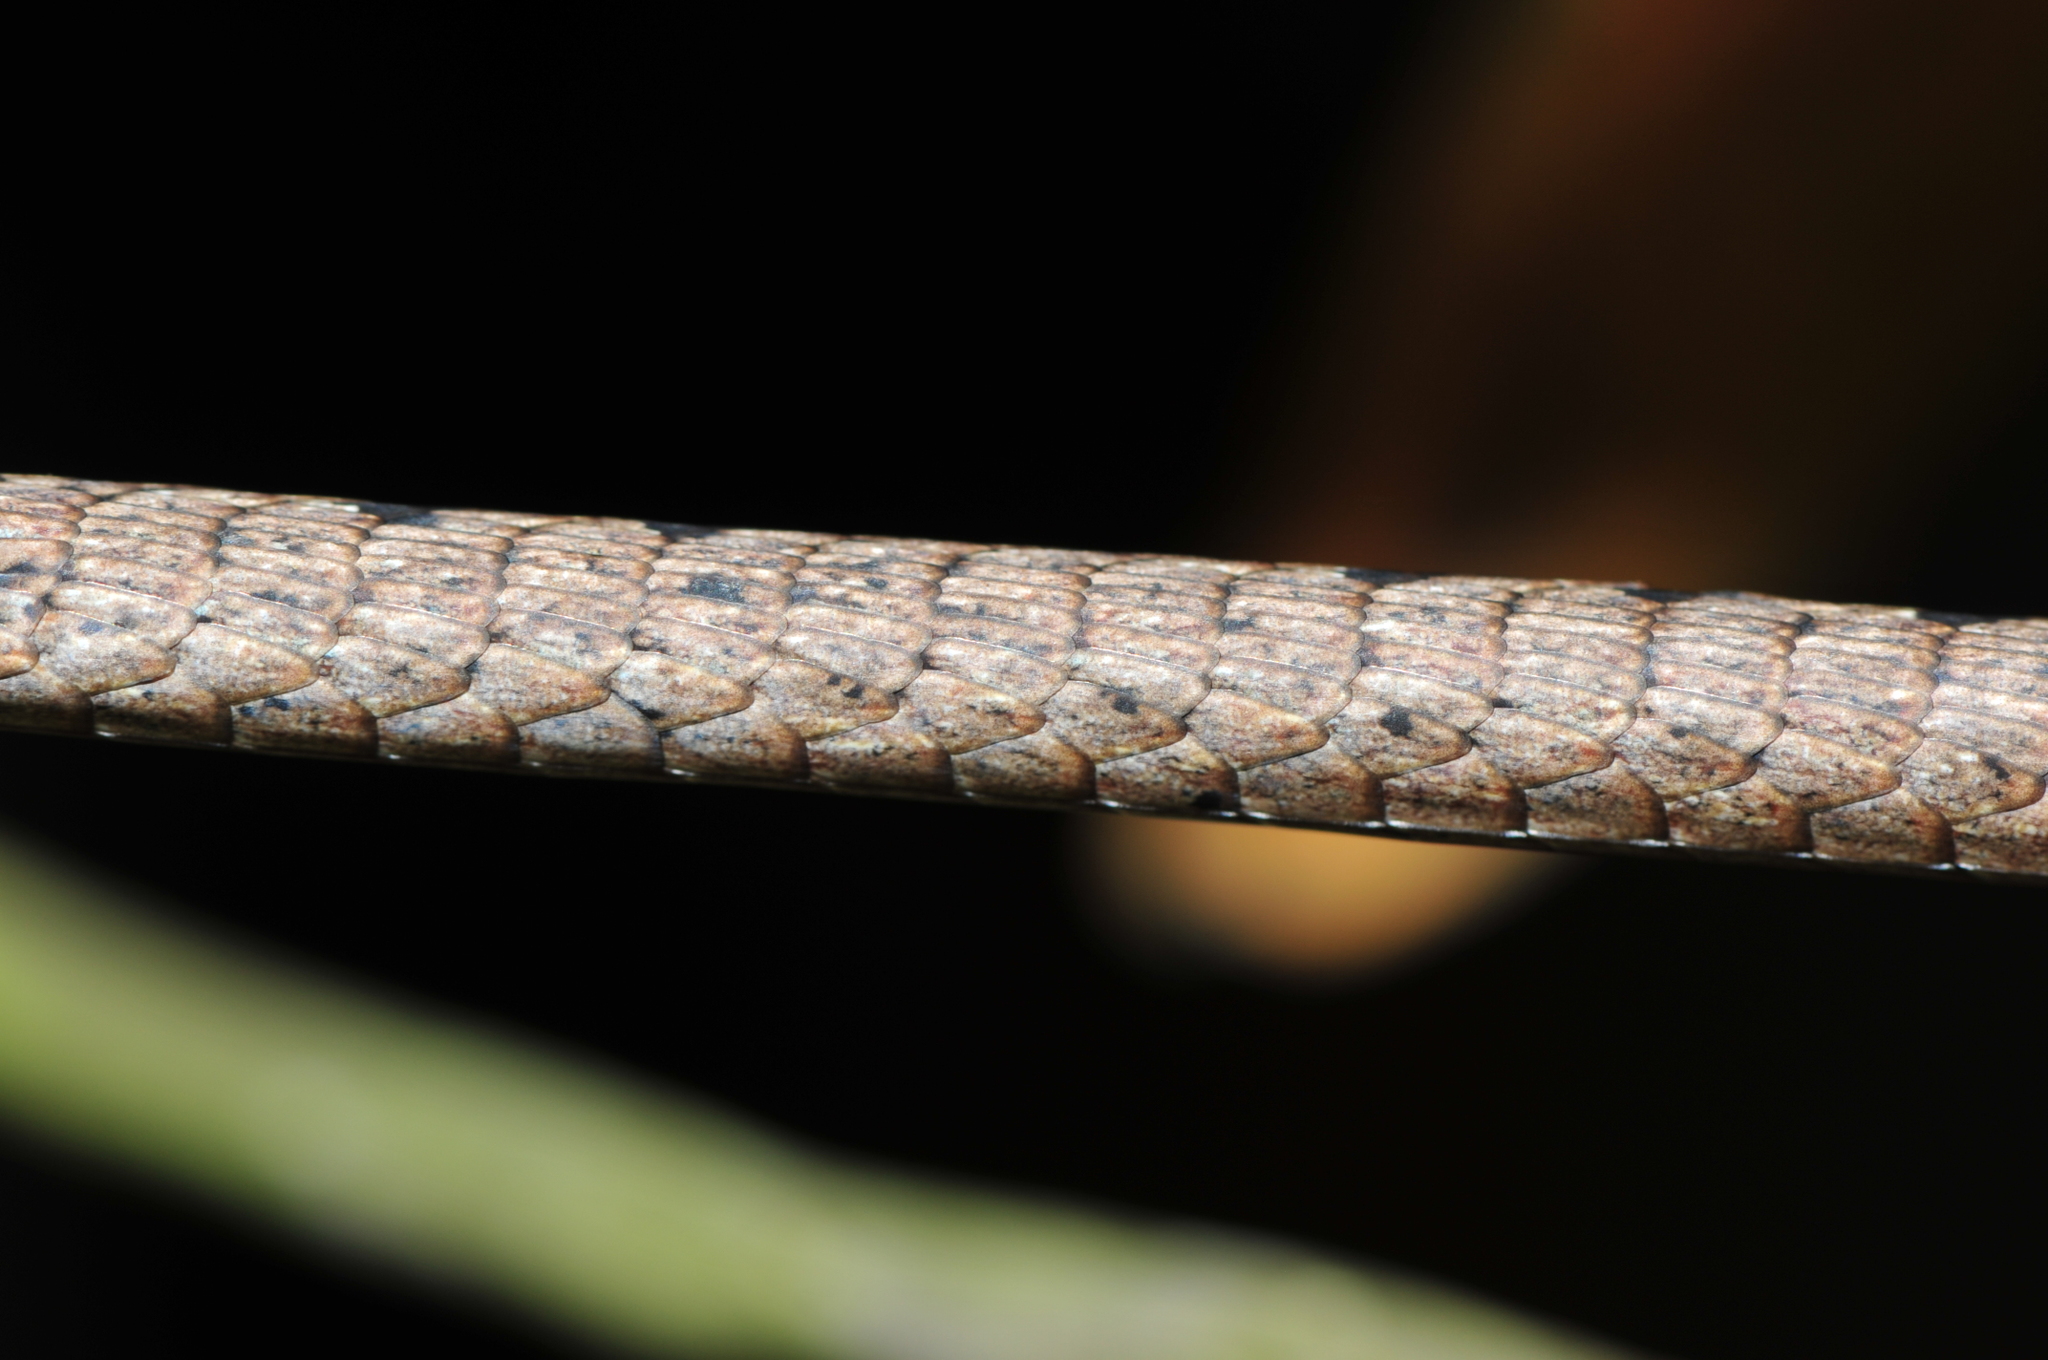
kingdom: Animalia
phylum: Chordata
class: Squamata
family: Colubridae
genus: Dryophiops
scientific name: Dryophiops rubescens
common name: Red whip snake
